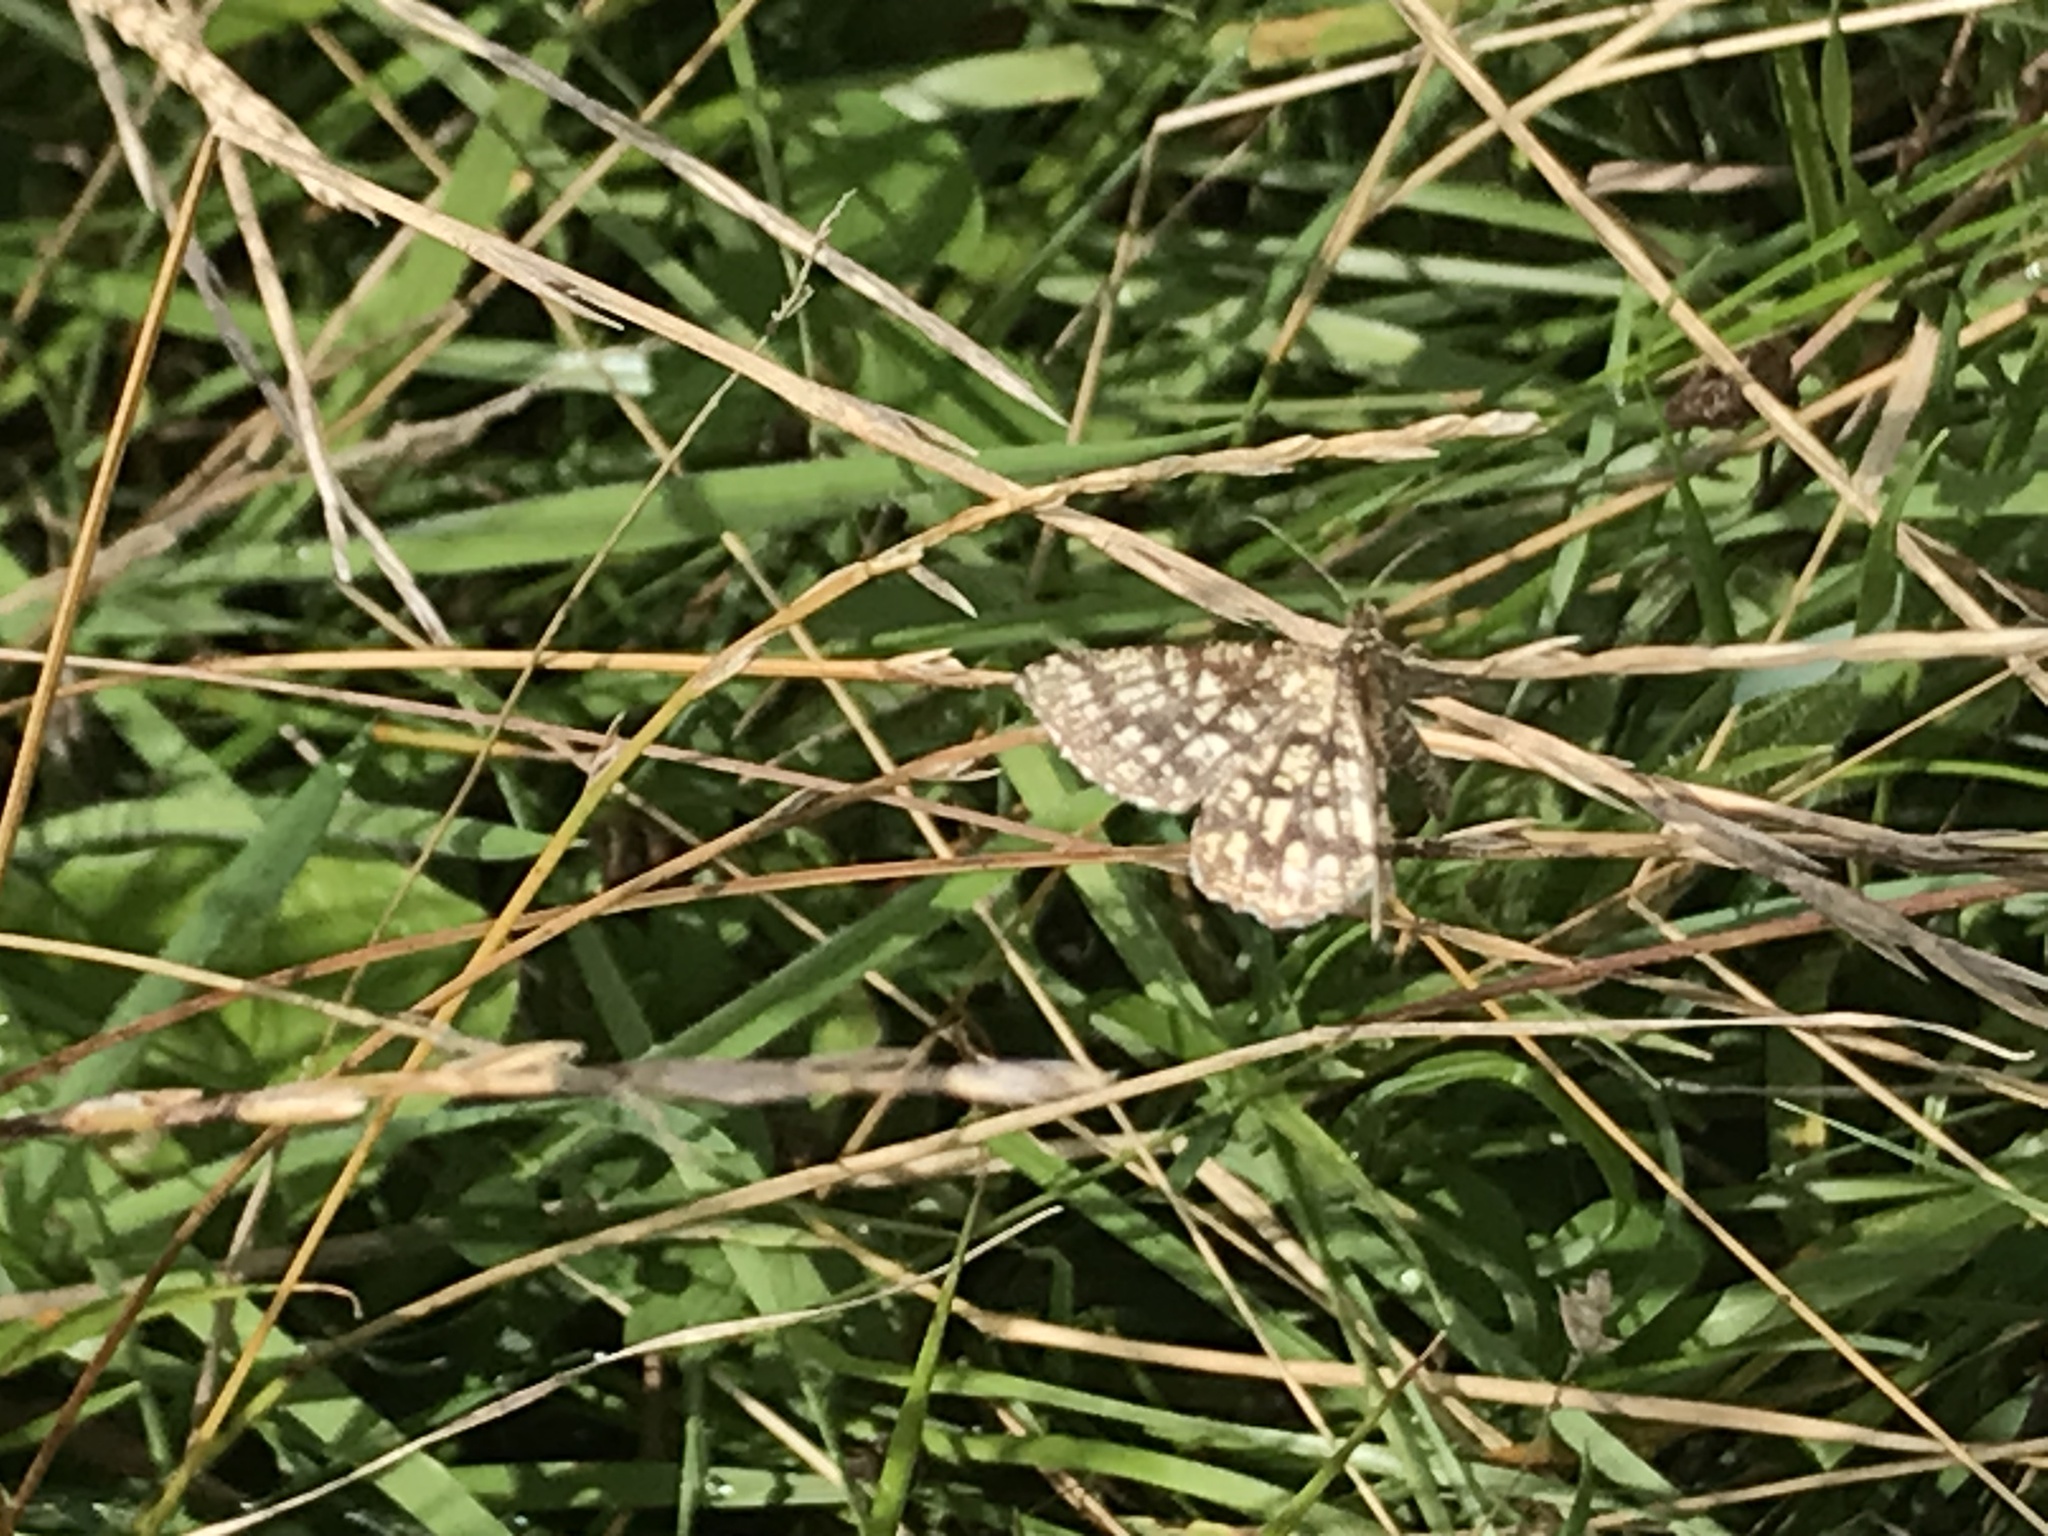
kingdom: Animalia
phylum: Arthropoda
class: Insecta
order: Lepidoptera
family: Geometridae
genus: Chiasmia
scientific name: Chiasmia clathrata
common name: Latticed heath
